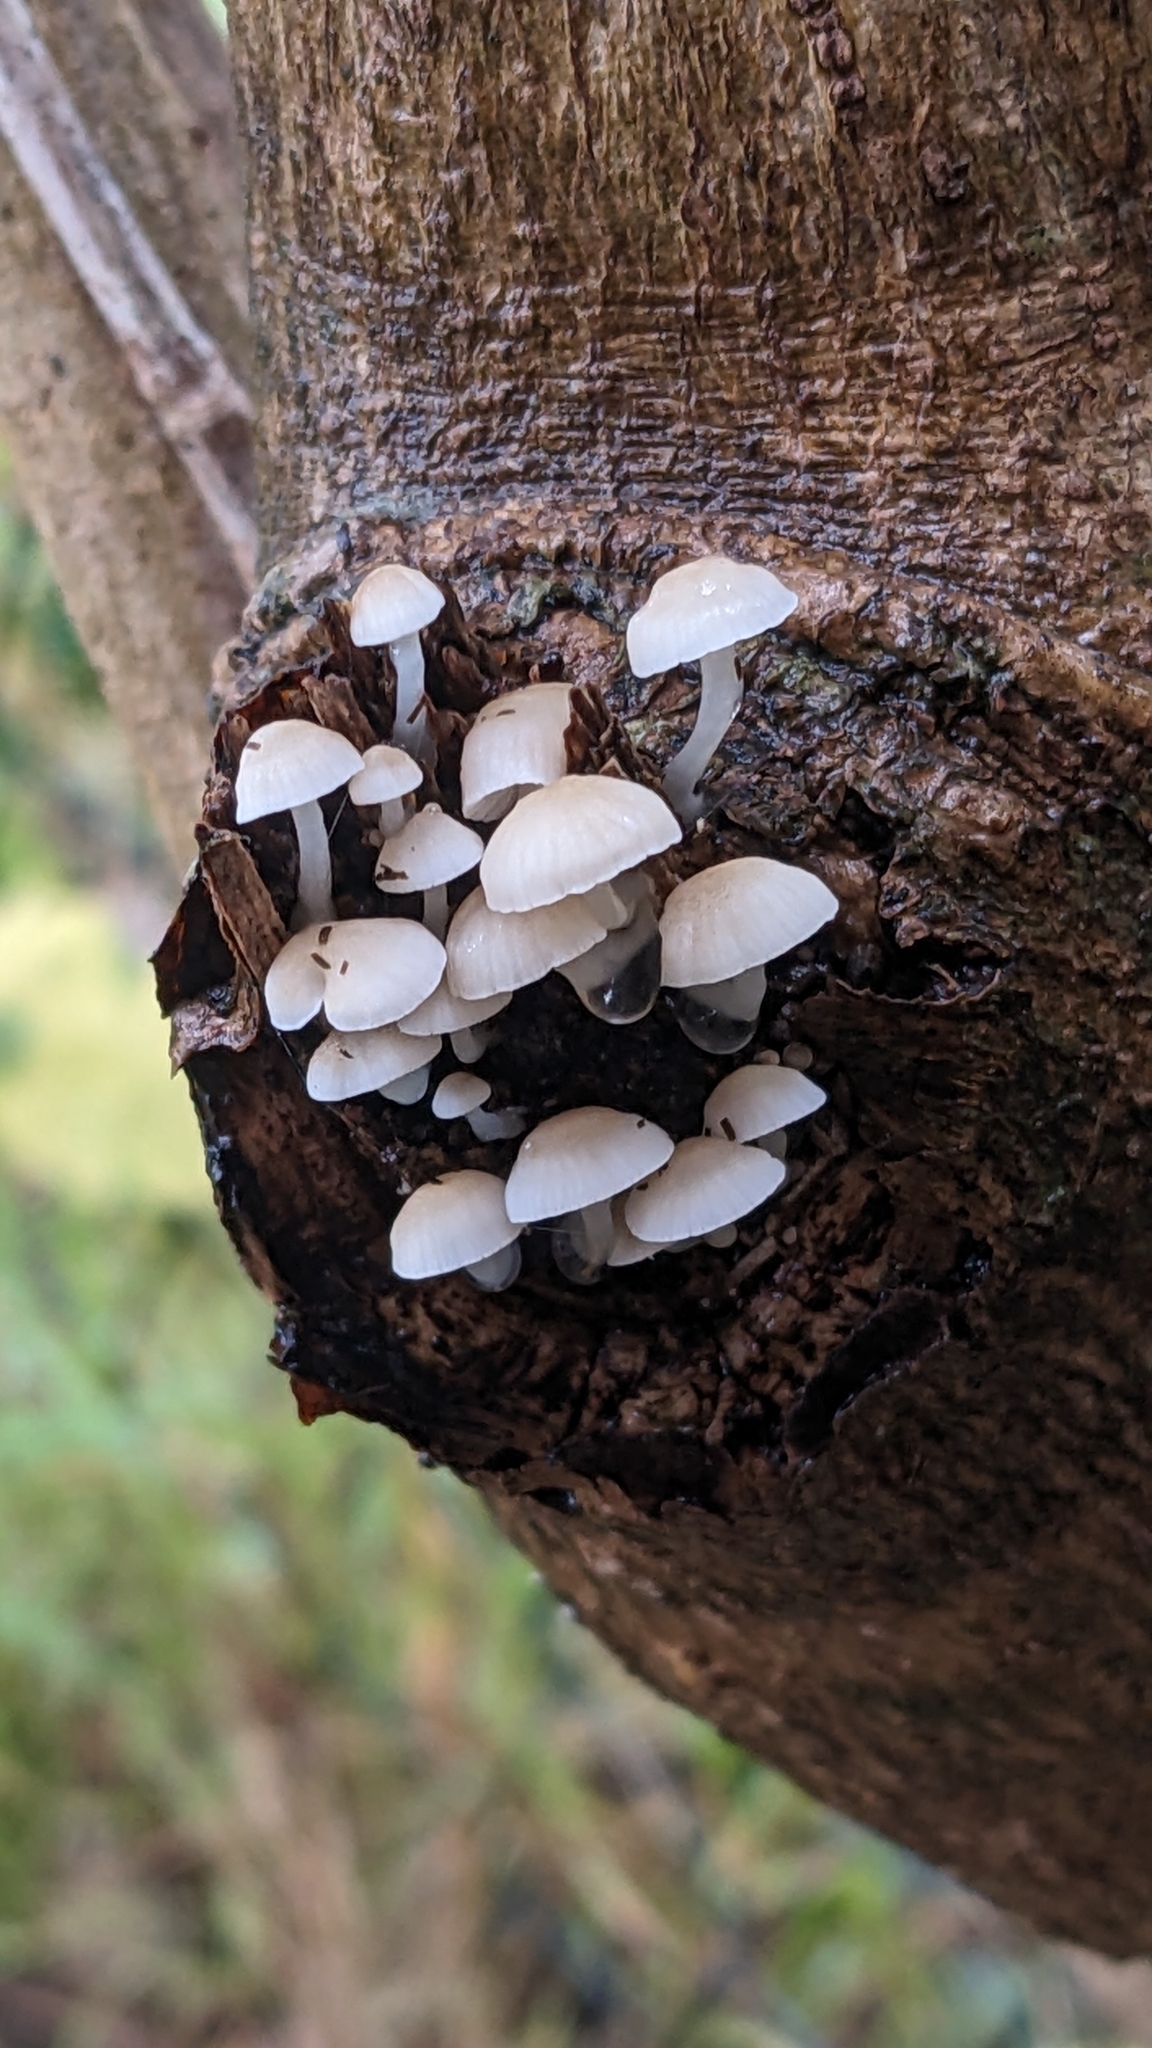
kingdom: Fungi
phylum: Basidiomycota
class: Agaricomycetes
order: Agaricales
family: Mycenaceae
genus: Roridomyces
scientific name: Roridomyces austrororidus
